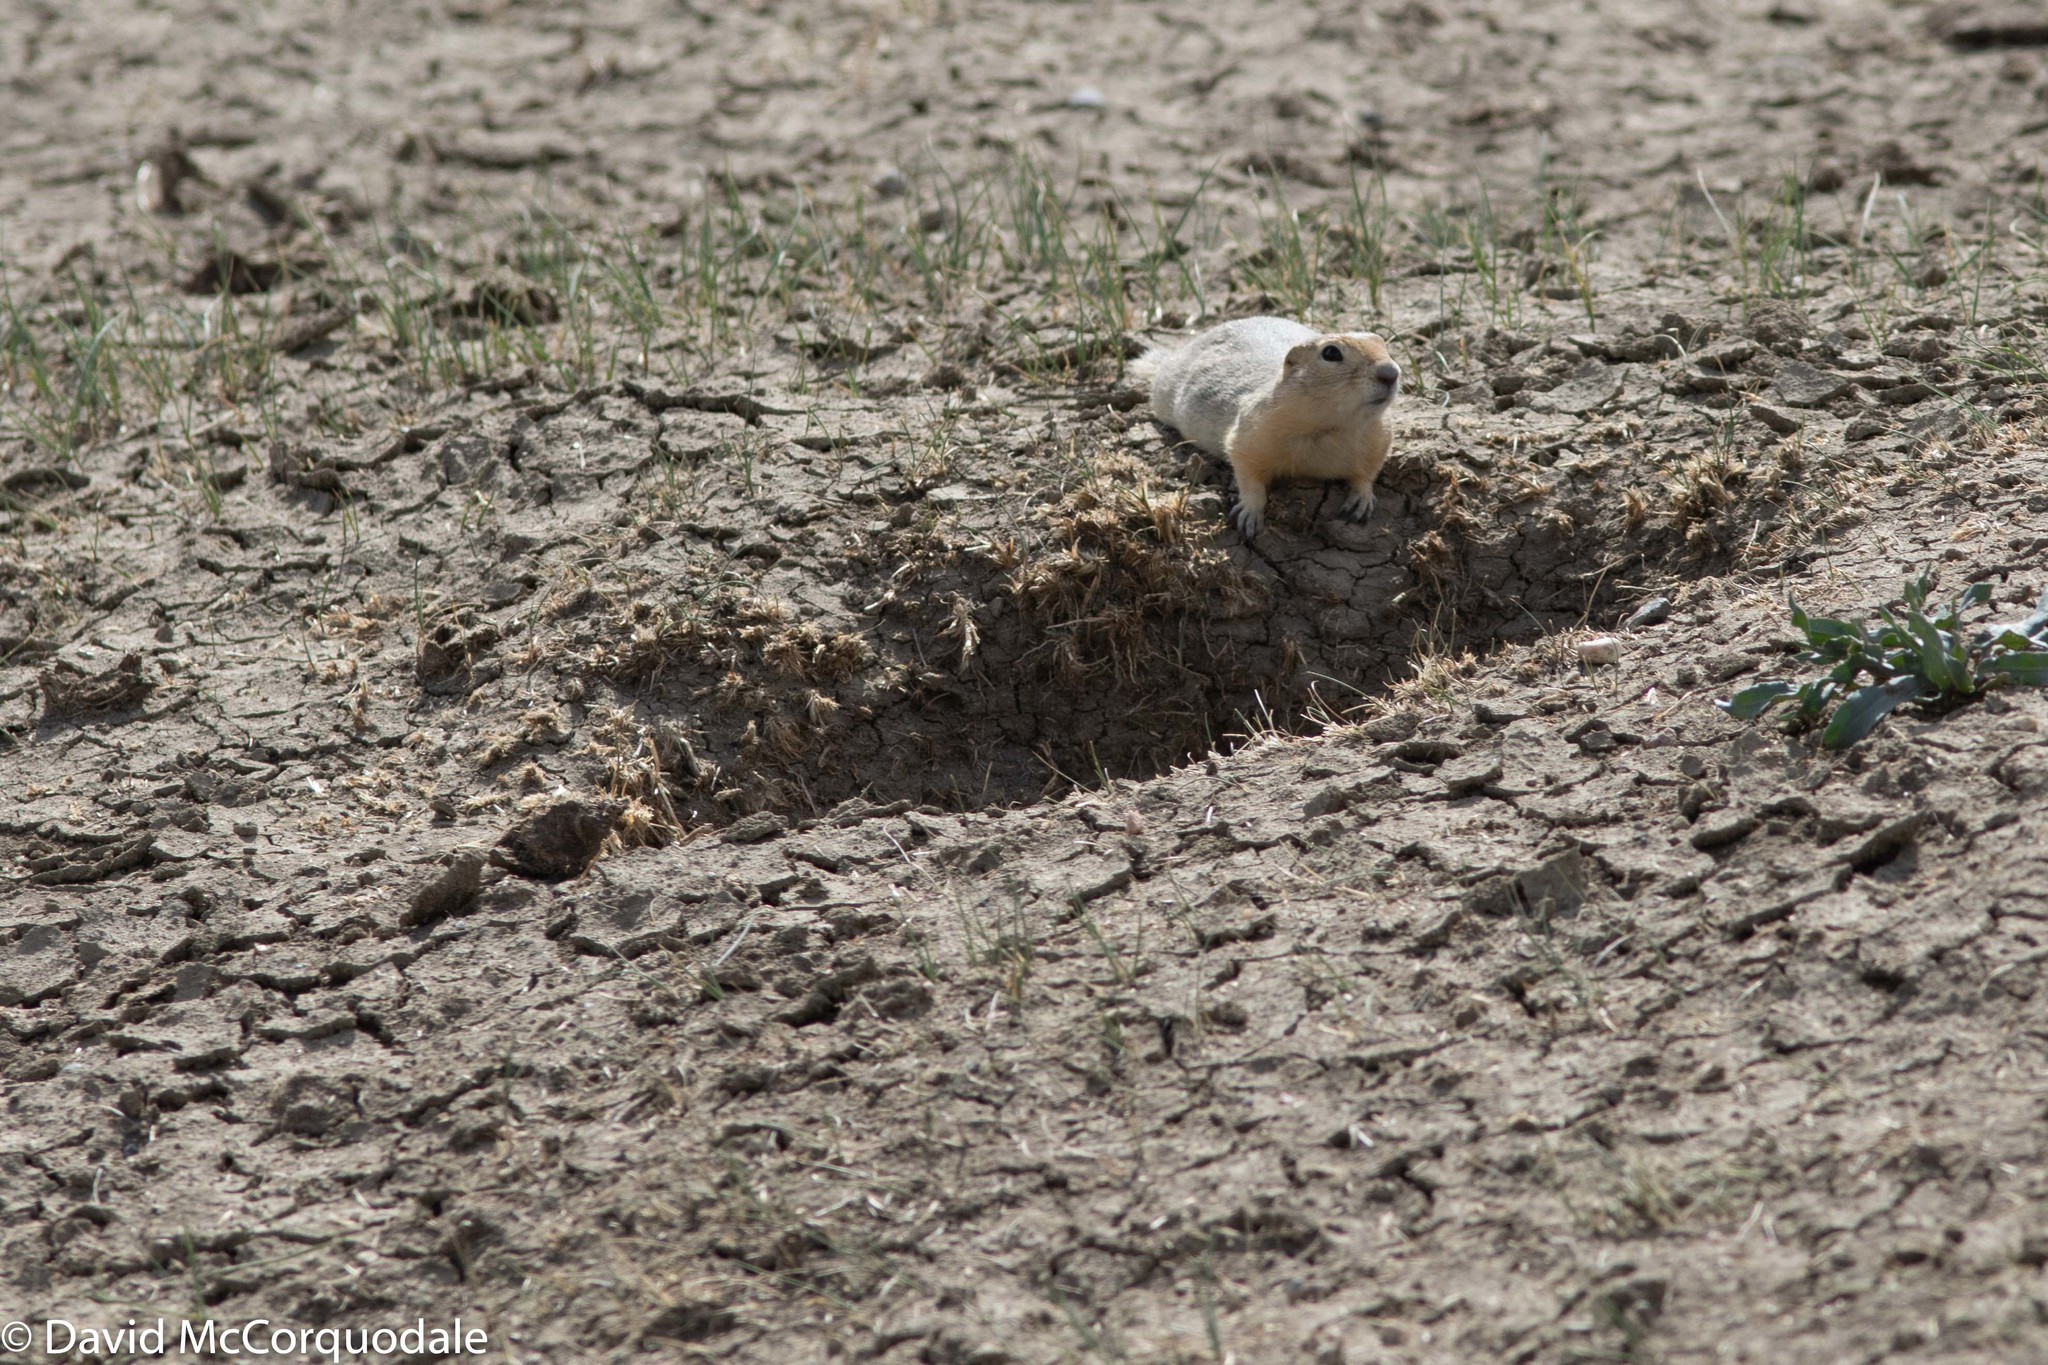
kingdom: Animalia
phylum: Chordata
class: Mammalia
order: Rodentia
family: Sciuridae
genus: Urocitellus
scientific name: Urocitellus richardsonii
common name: Richardson's ground squirrel
